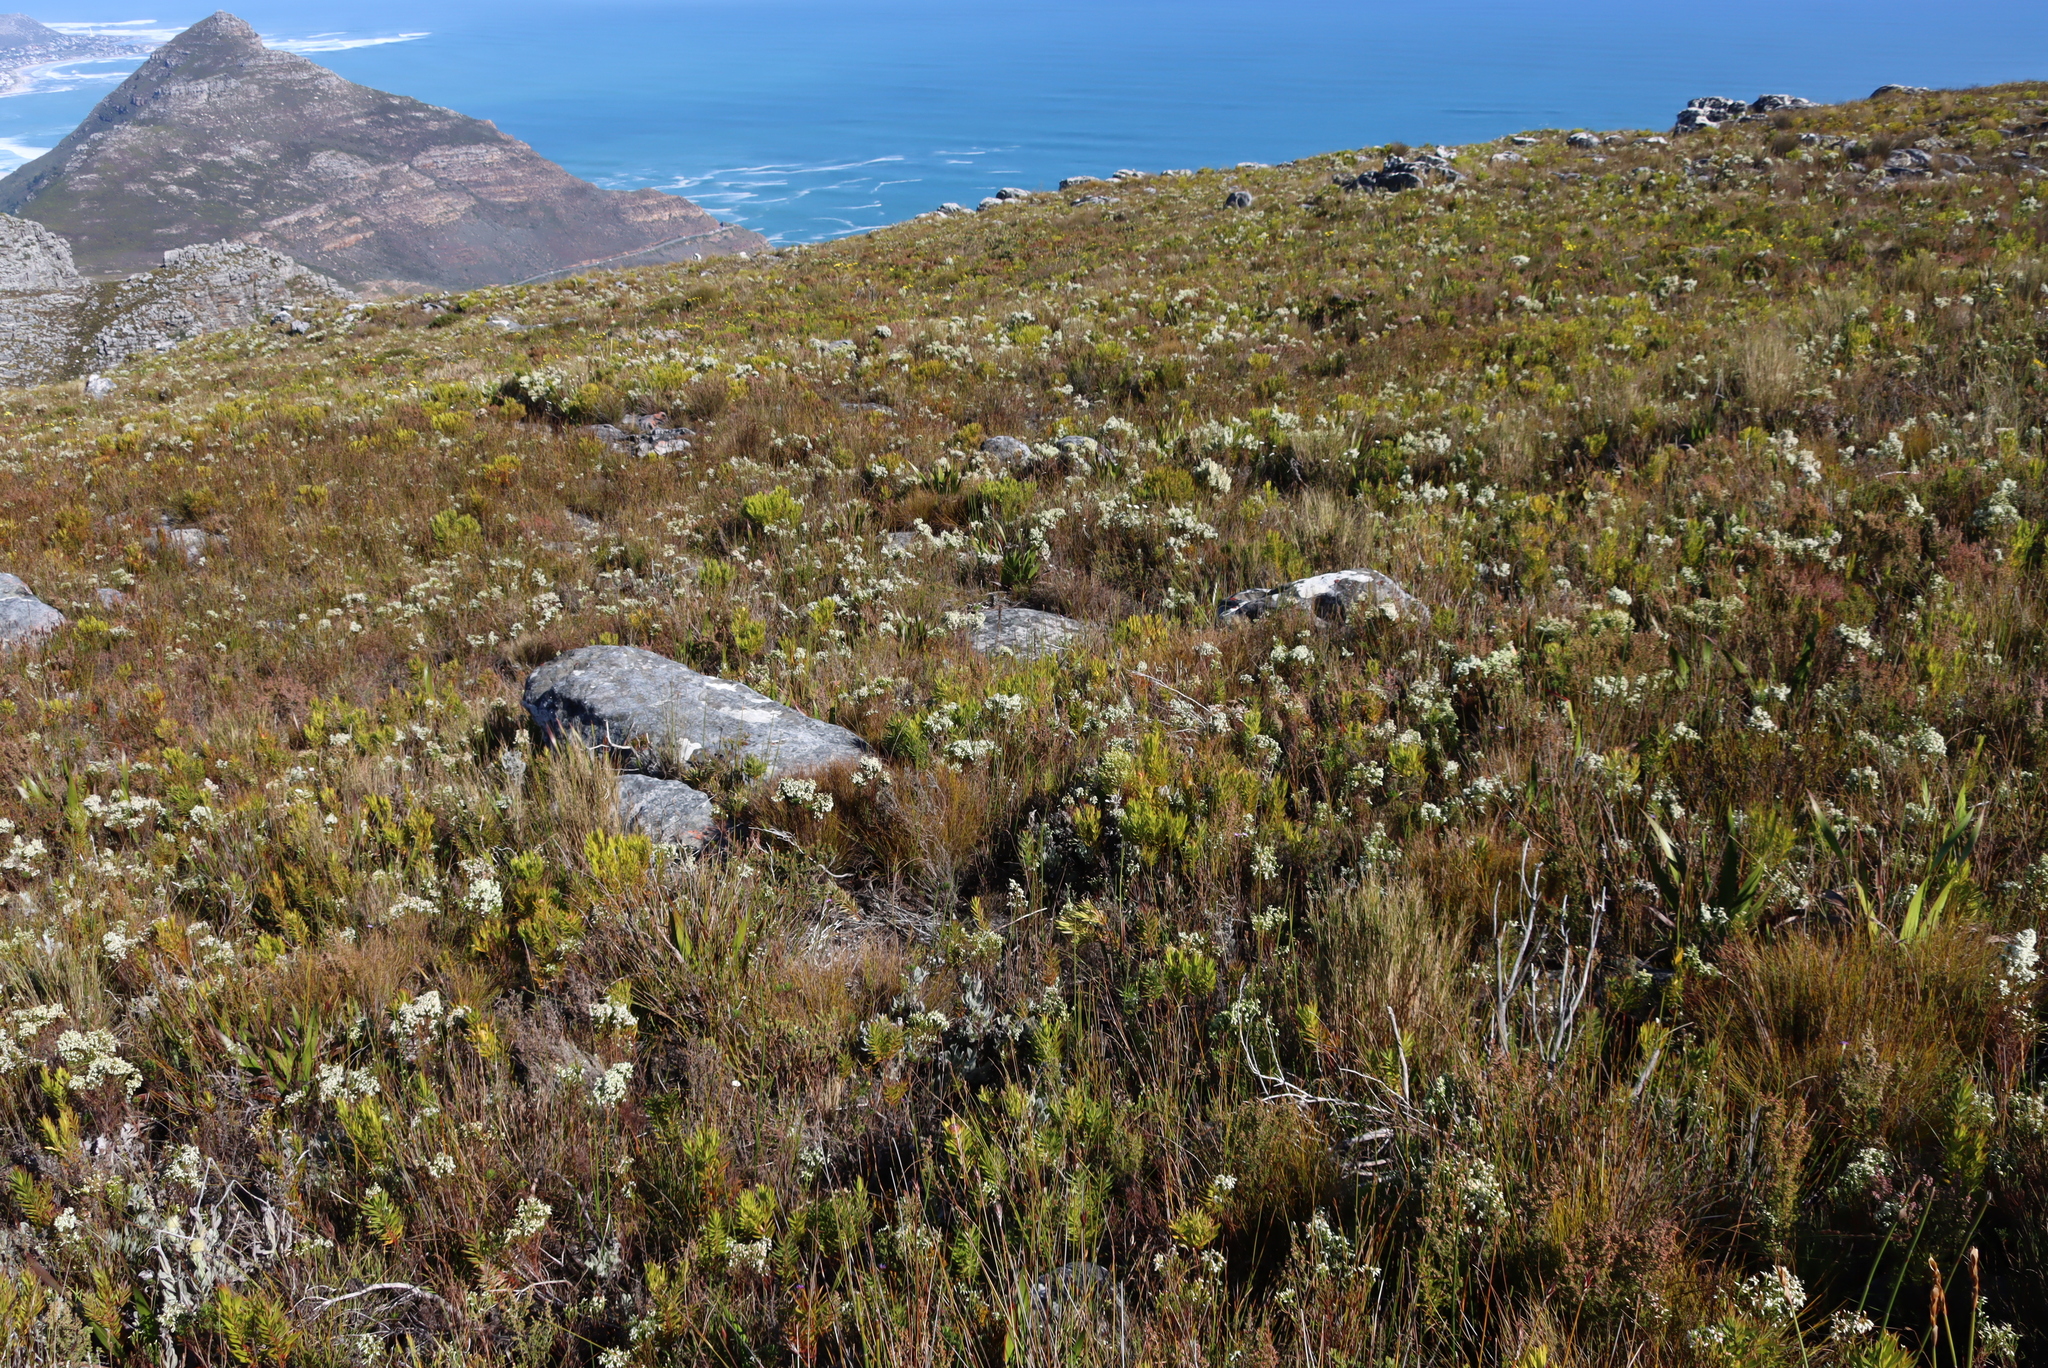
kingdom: Plantae
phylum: Tracheophyta
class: Magnoliopsida
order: Ericales
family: Ericaceae
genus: Erica
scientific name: Erica lutea
